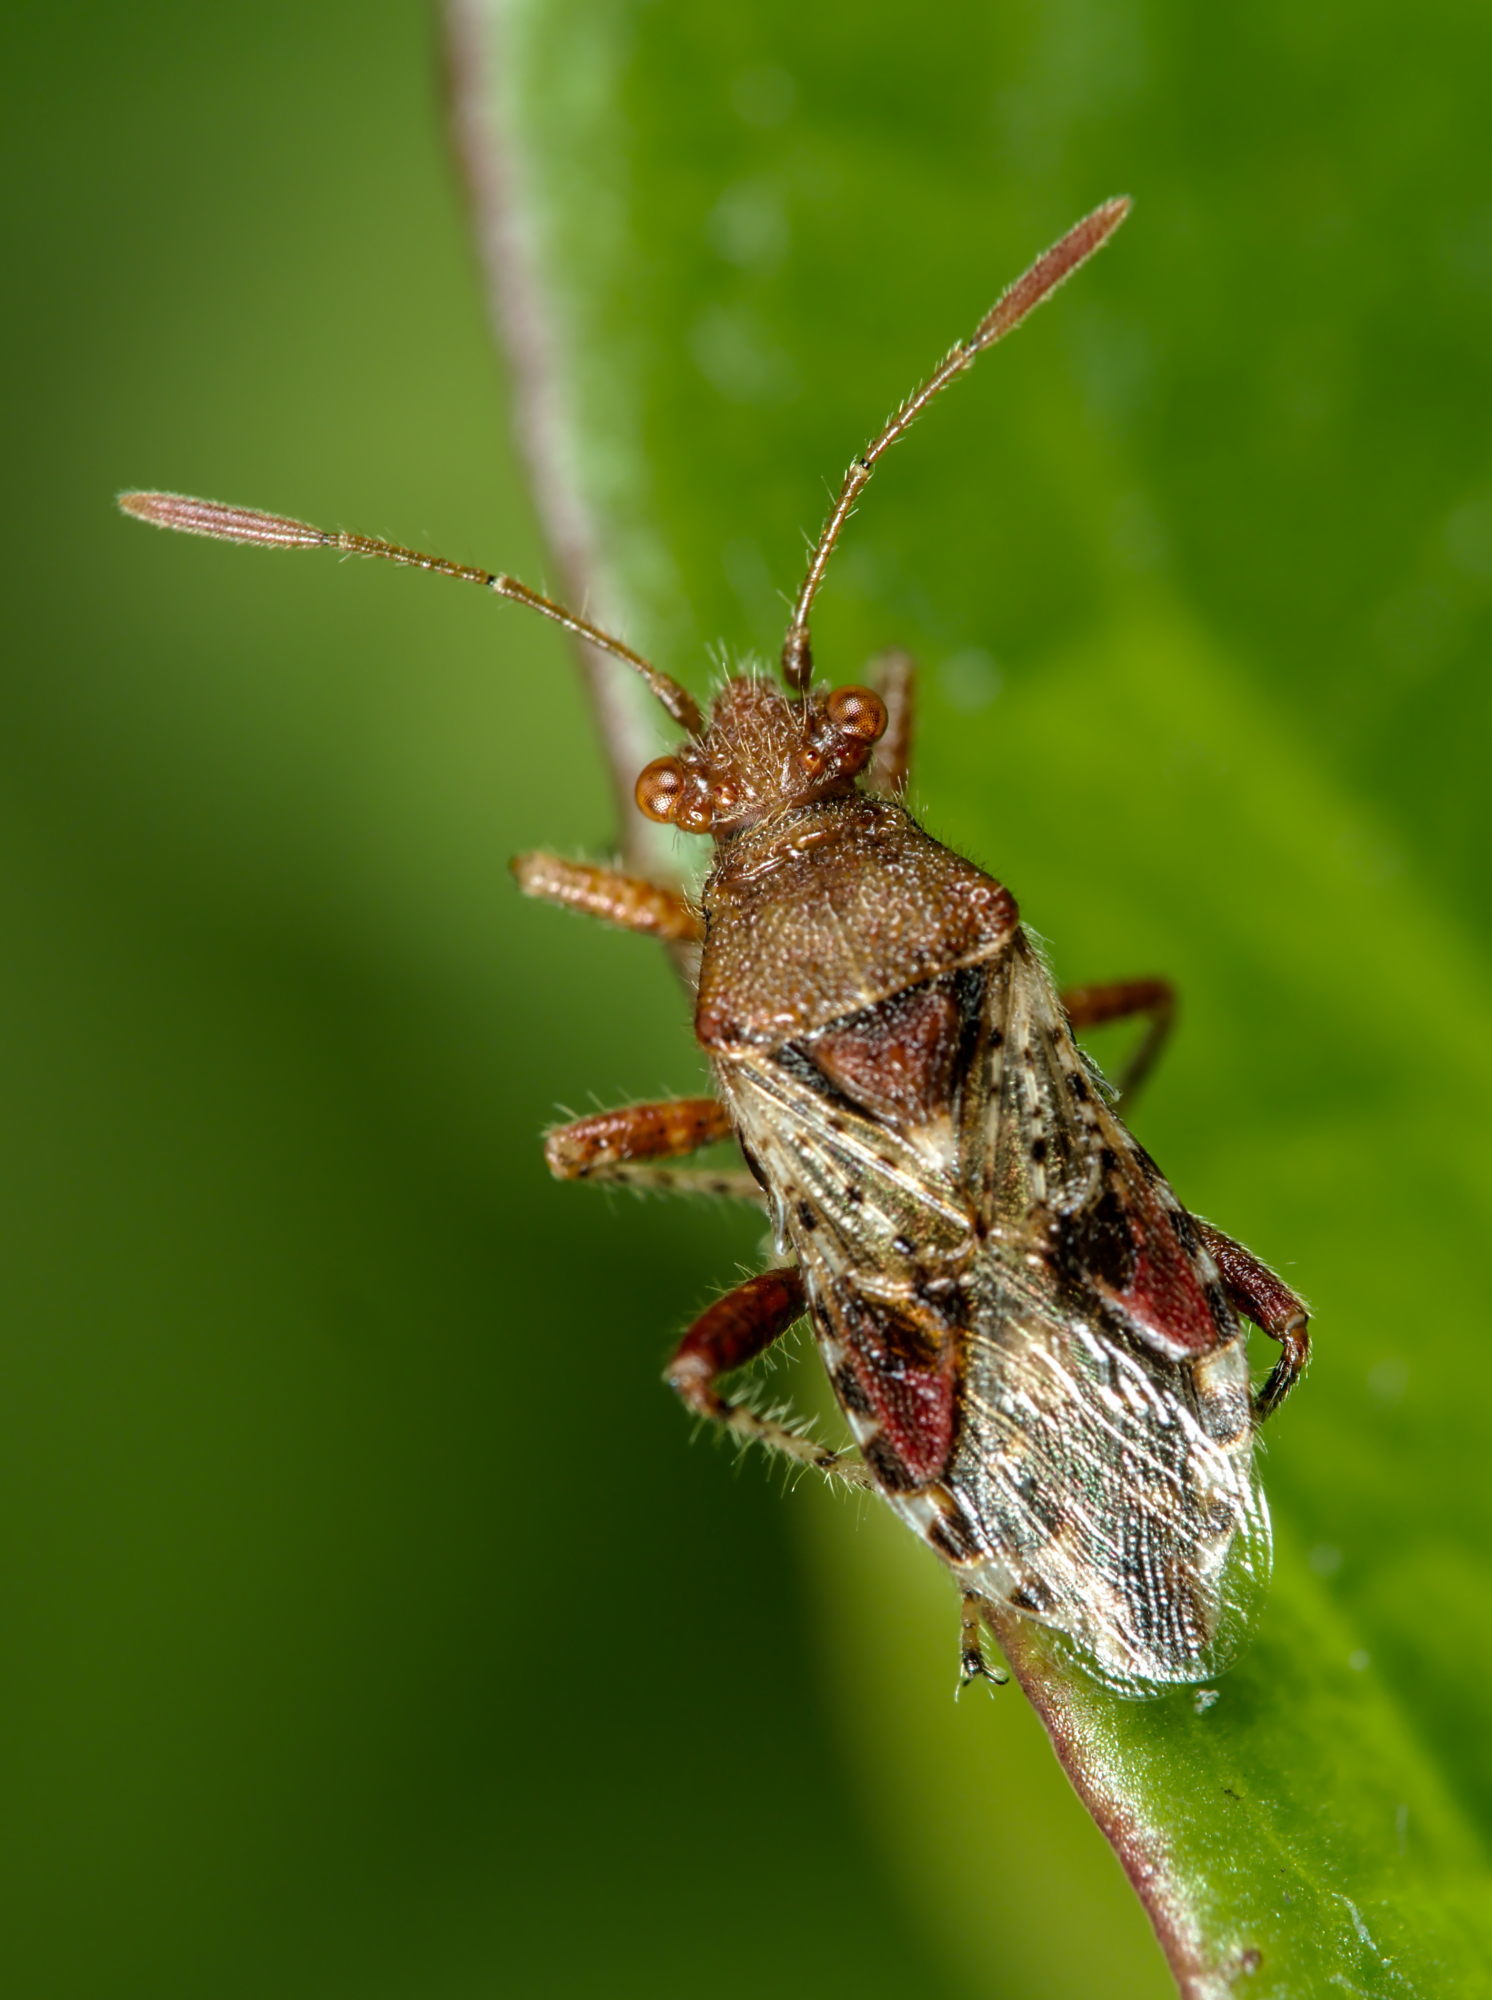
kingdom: Animalia
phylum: Arthropoda
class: Insecta
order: Hemiptera
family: Rhopalidae
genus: Rhopalus
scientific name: Rhopalus subrufus
